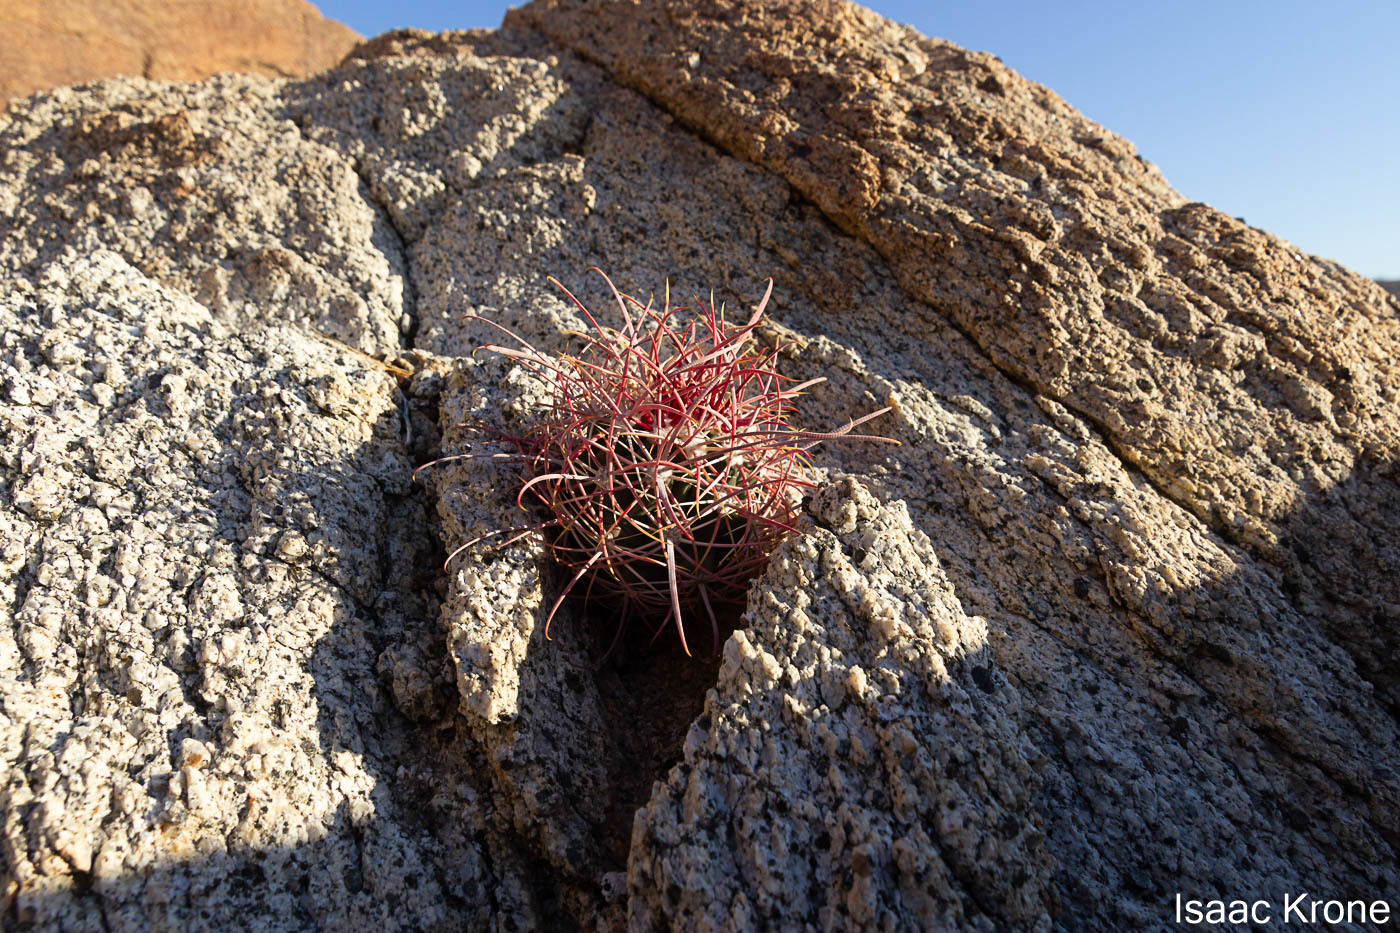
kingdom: Plantae
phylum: Tracheophyta
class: Magnoliopsida
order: Caryophyllales
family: Cactaceae
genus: Ferocactus
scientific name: Ferocactus cylindraceus
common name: California barrel cactus
